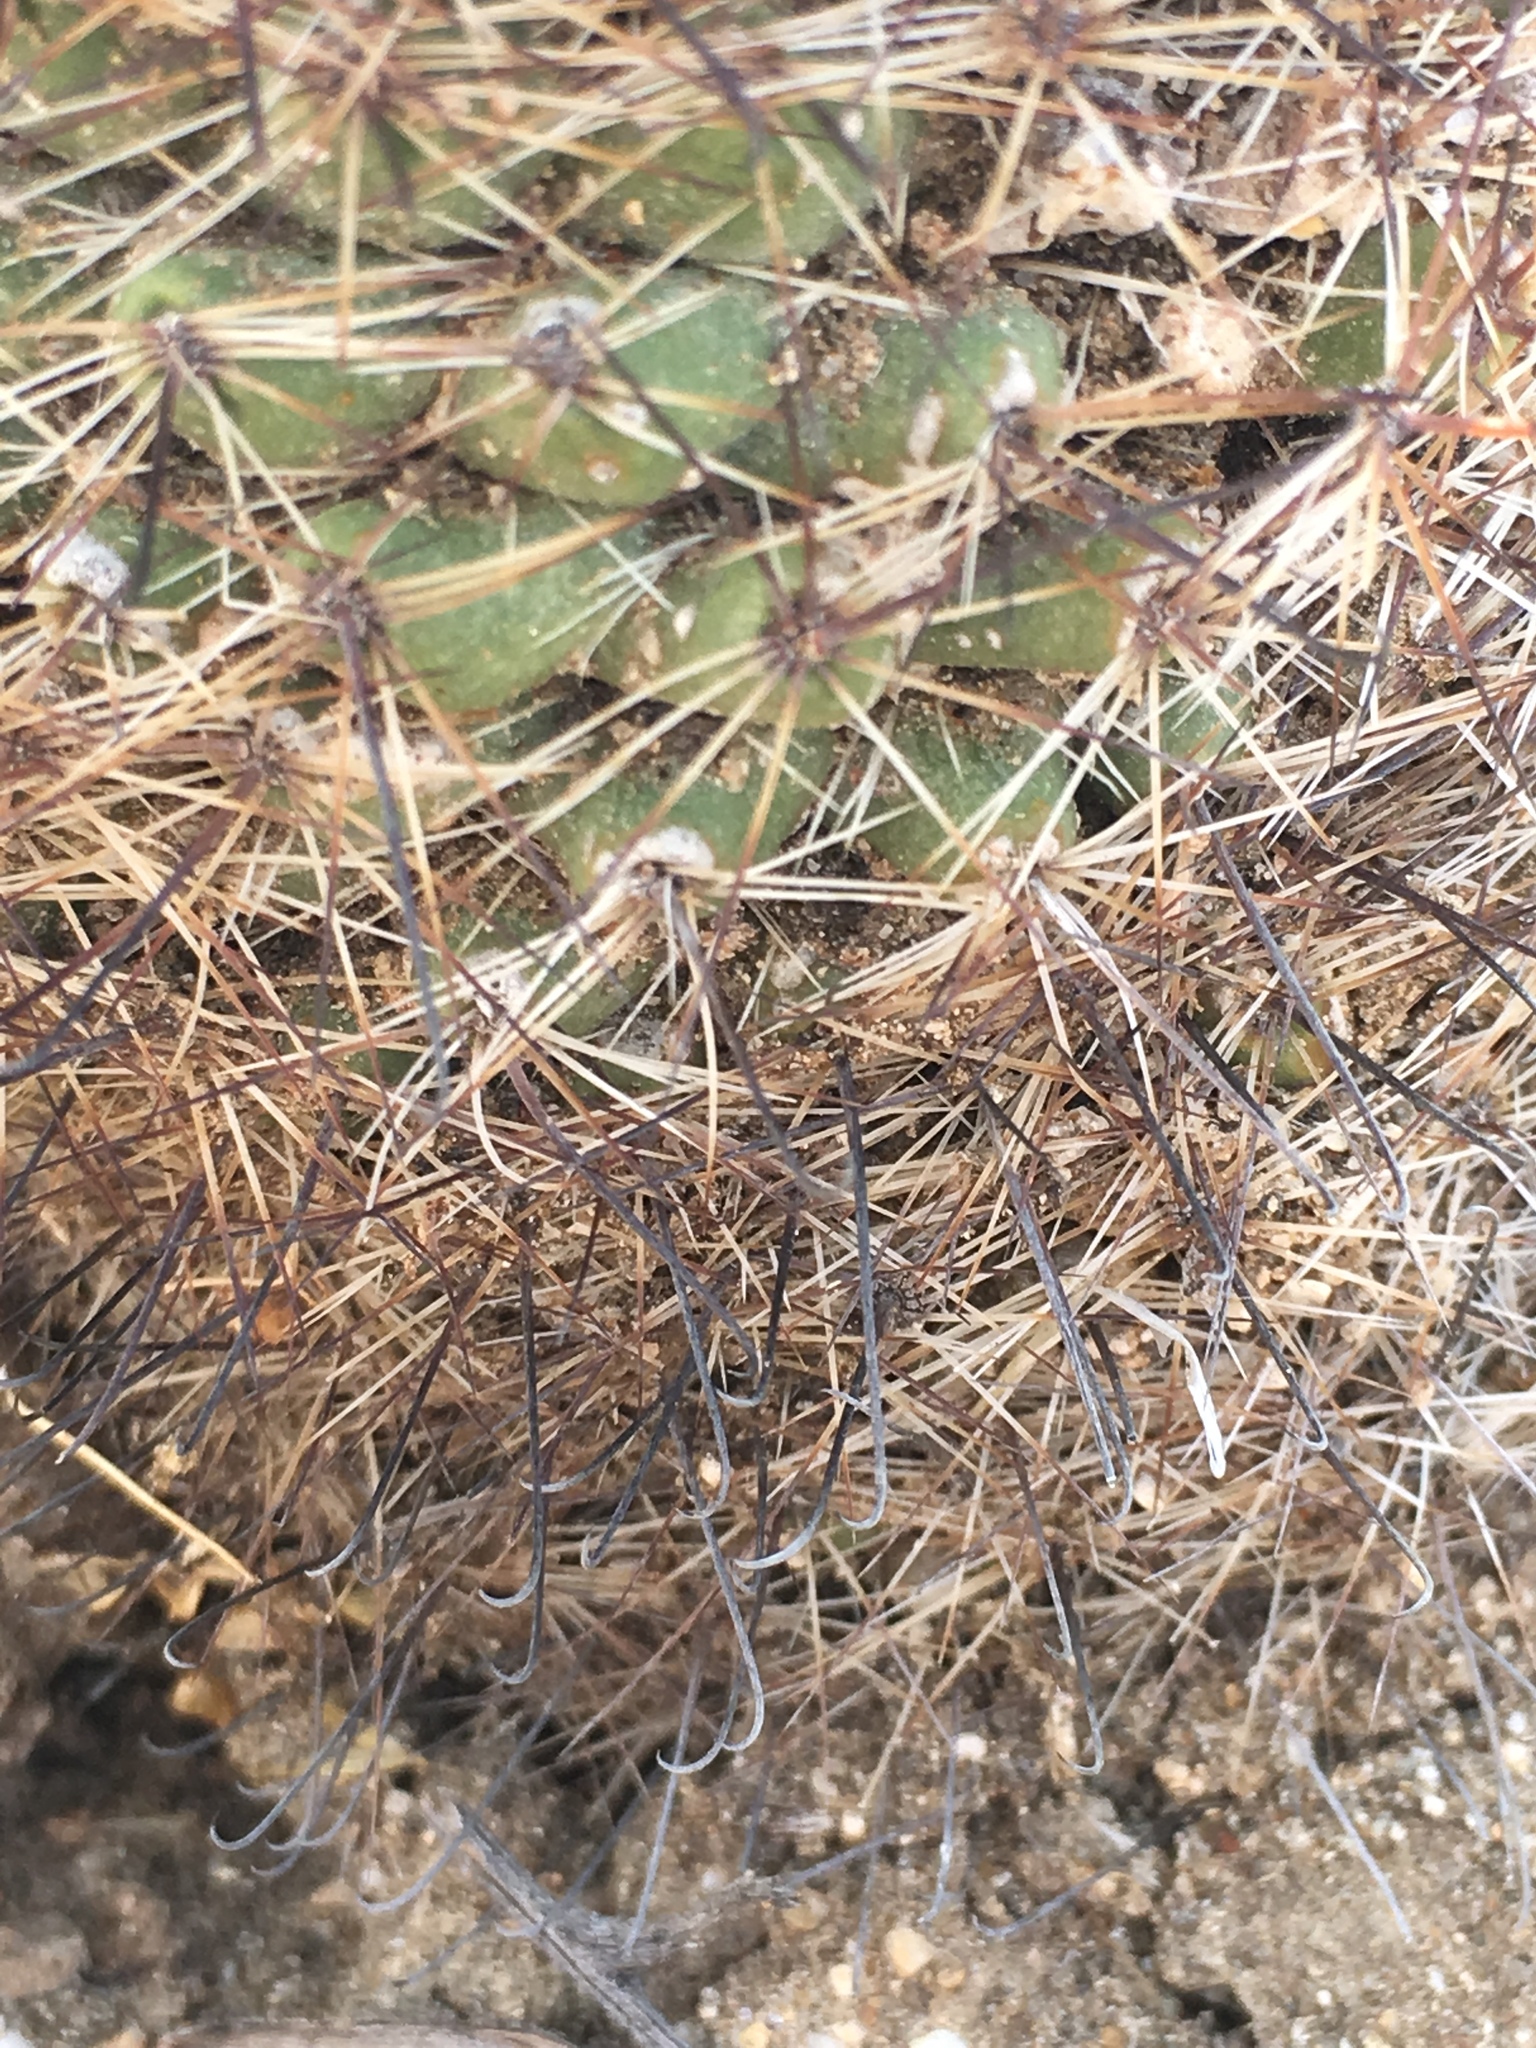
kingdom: Plantae
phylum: Tracheophyta
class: Magnoliopsida
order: Caryophyllales
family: Cactaceae
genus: Cochemiea
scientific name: Cochemiea dioica
